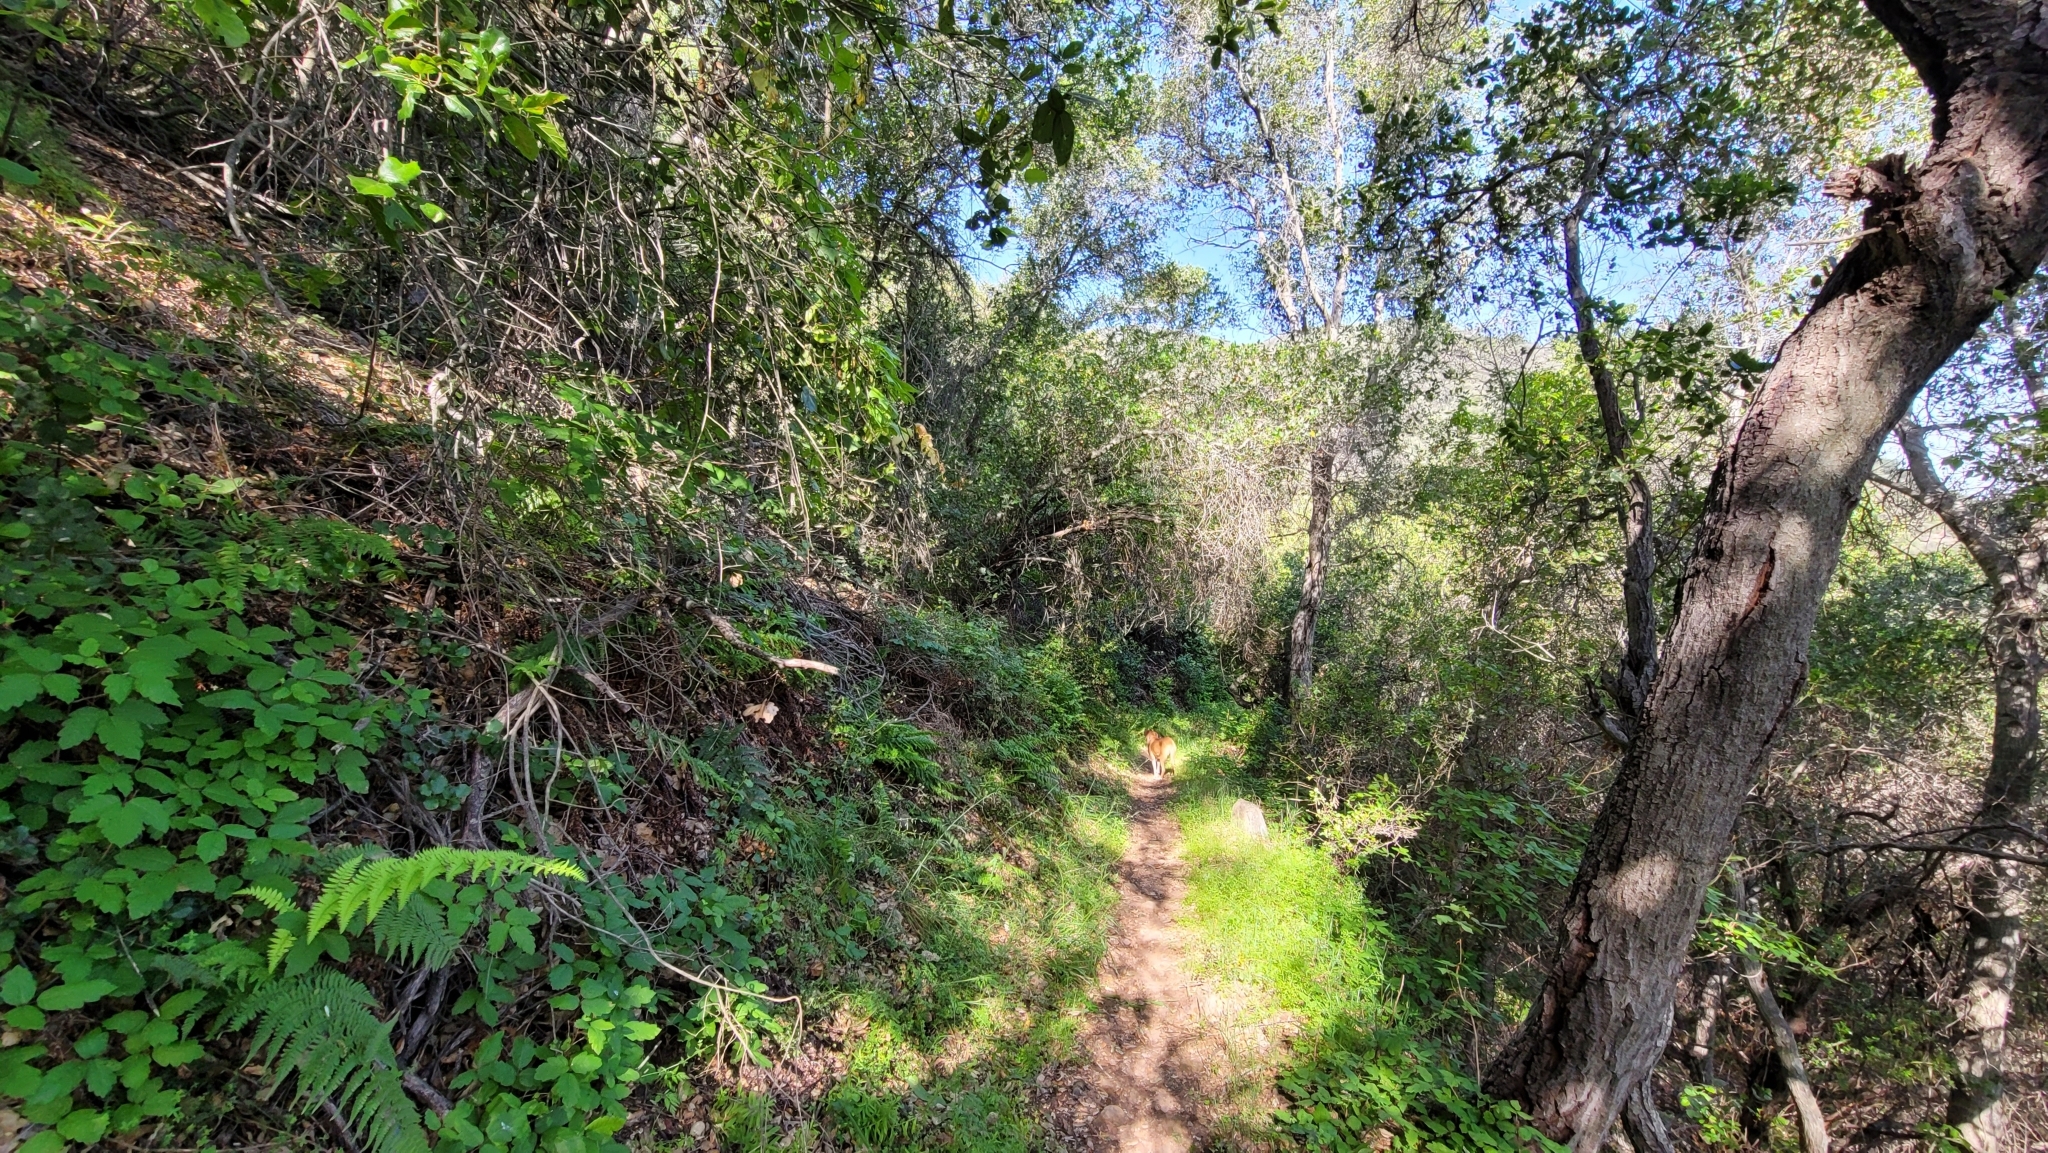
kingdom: Plantae
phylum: Tracheophyta
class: Liliopsida
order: Liliales
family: Liliaceae
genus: Fritillaria
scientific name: Fritillaria ojaiensis
